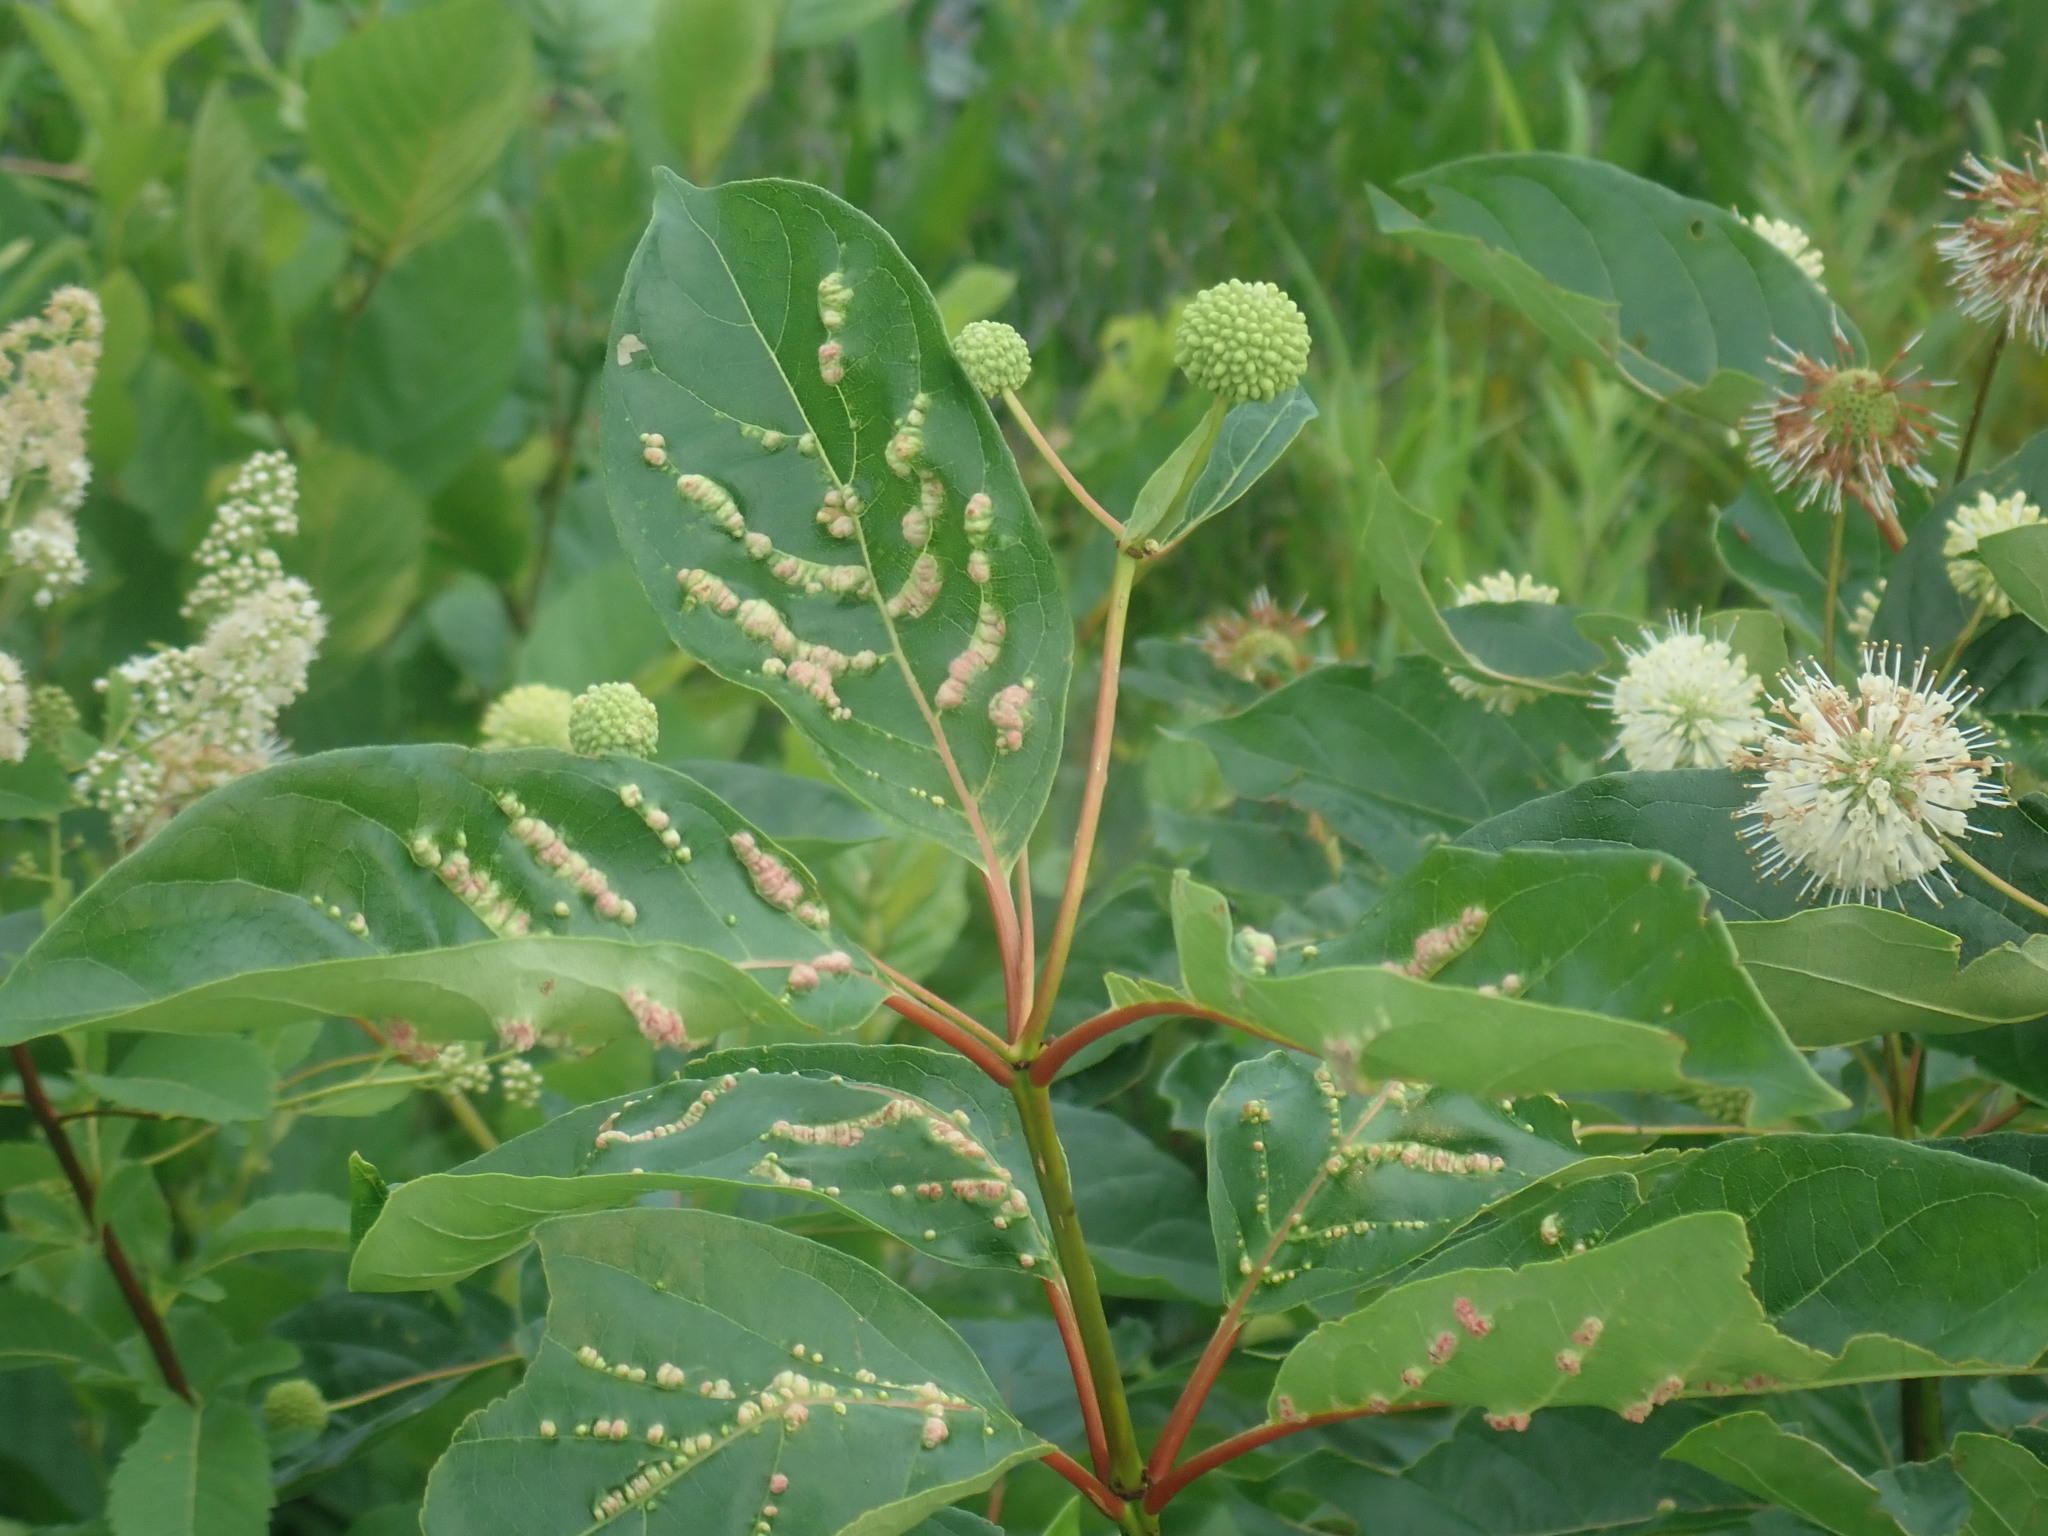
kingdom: Animalia
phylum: Arthropoda
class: Arachnida
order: Trombidiformes
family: Eriophyidae
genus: Aceria
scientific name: Aceria
